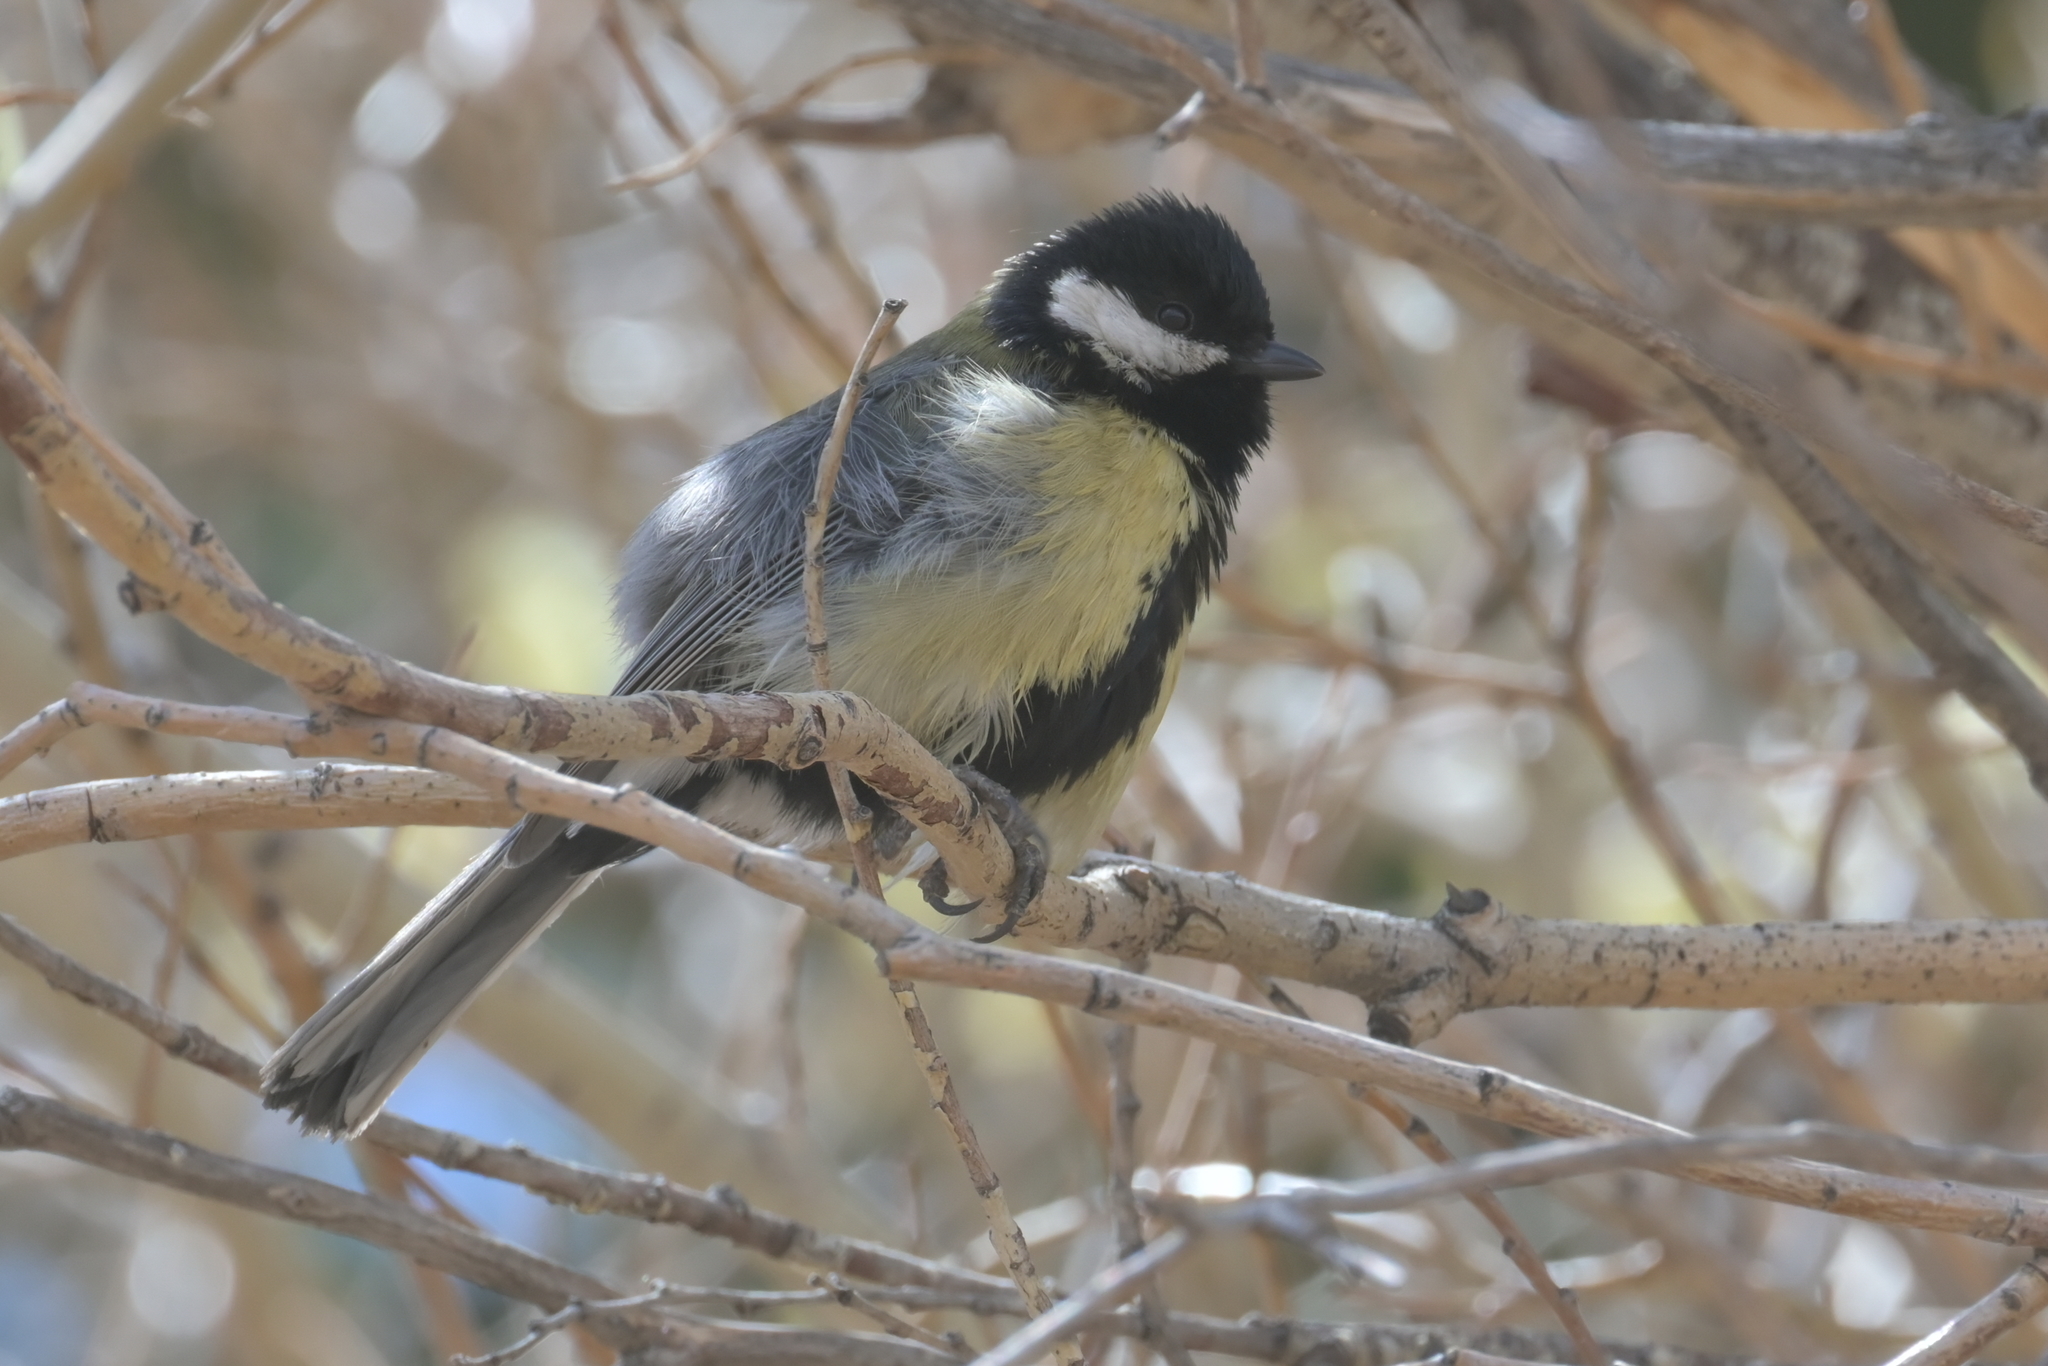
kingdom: Animalia
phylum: Chordata
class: Aves
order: Passeriformes
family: Paridae
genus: Parus
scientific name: Parus major
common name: Great tit
